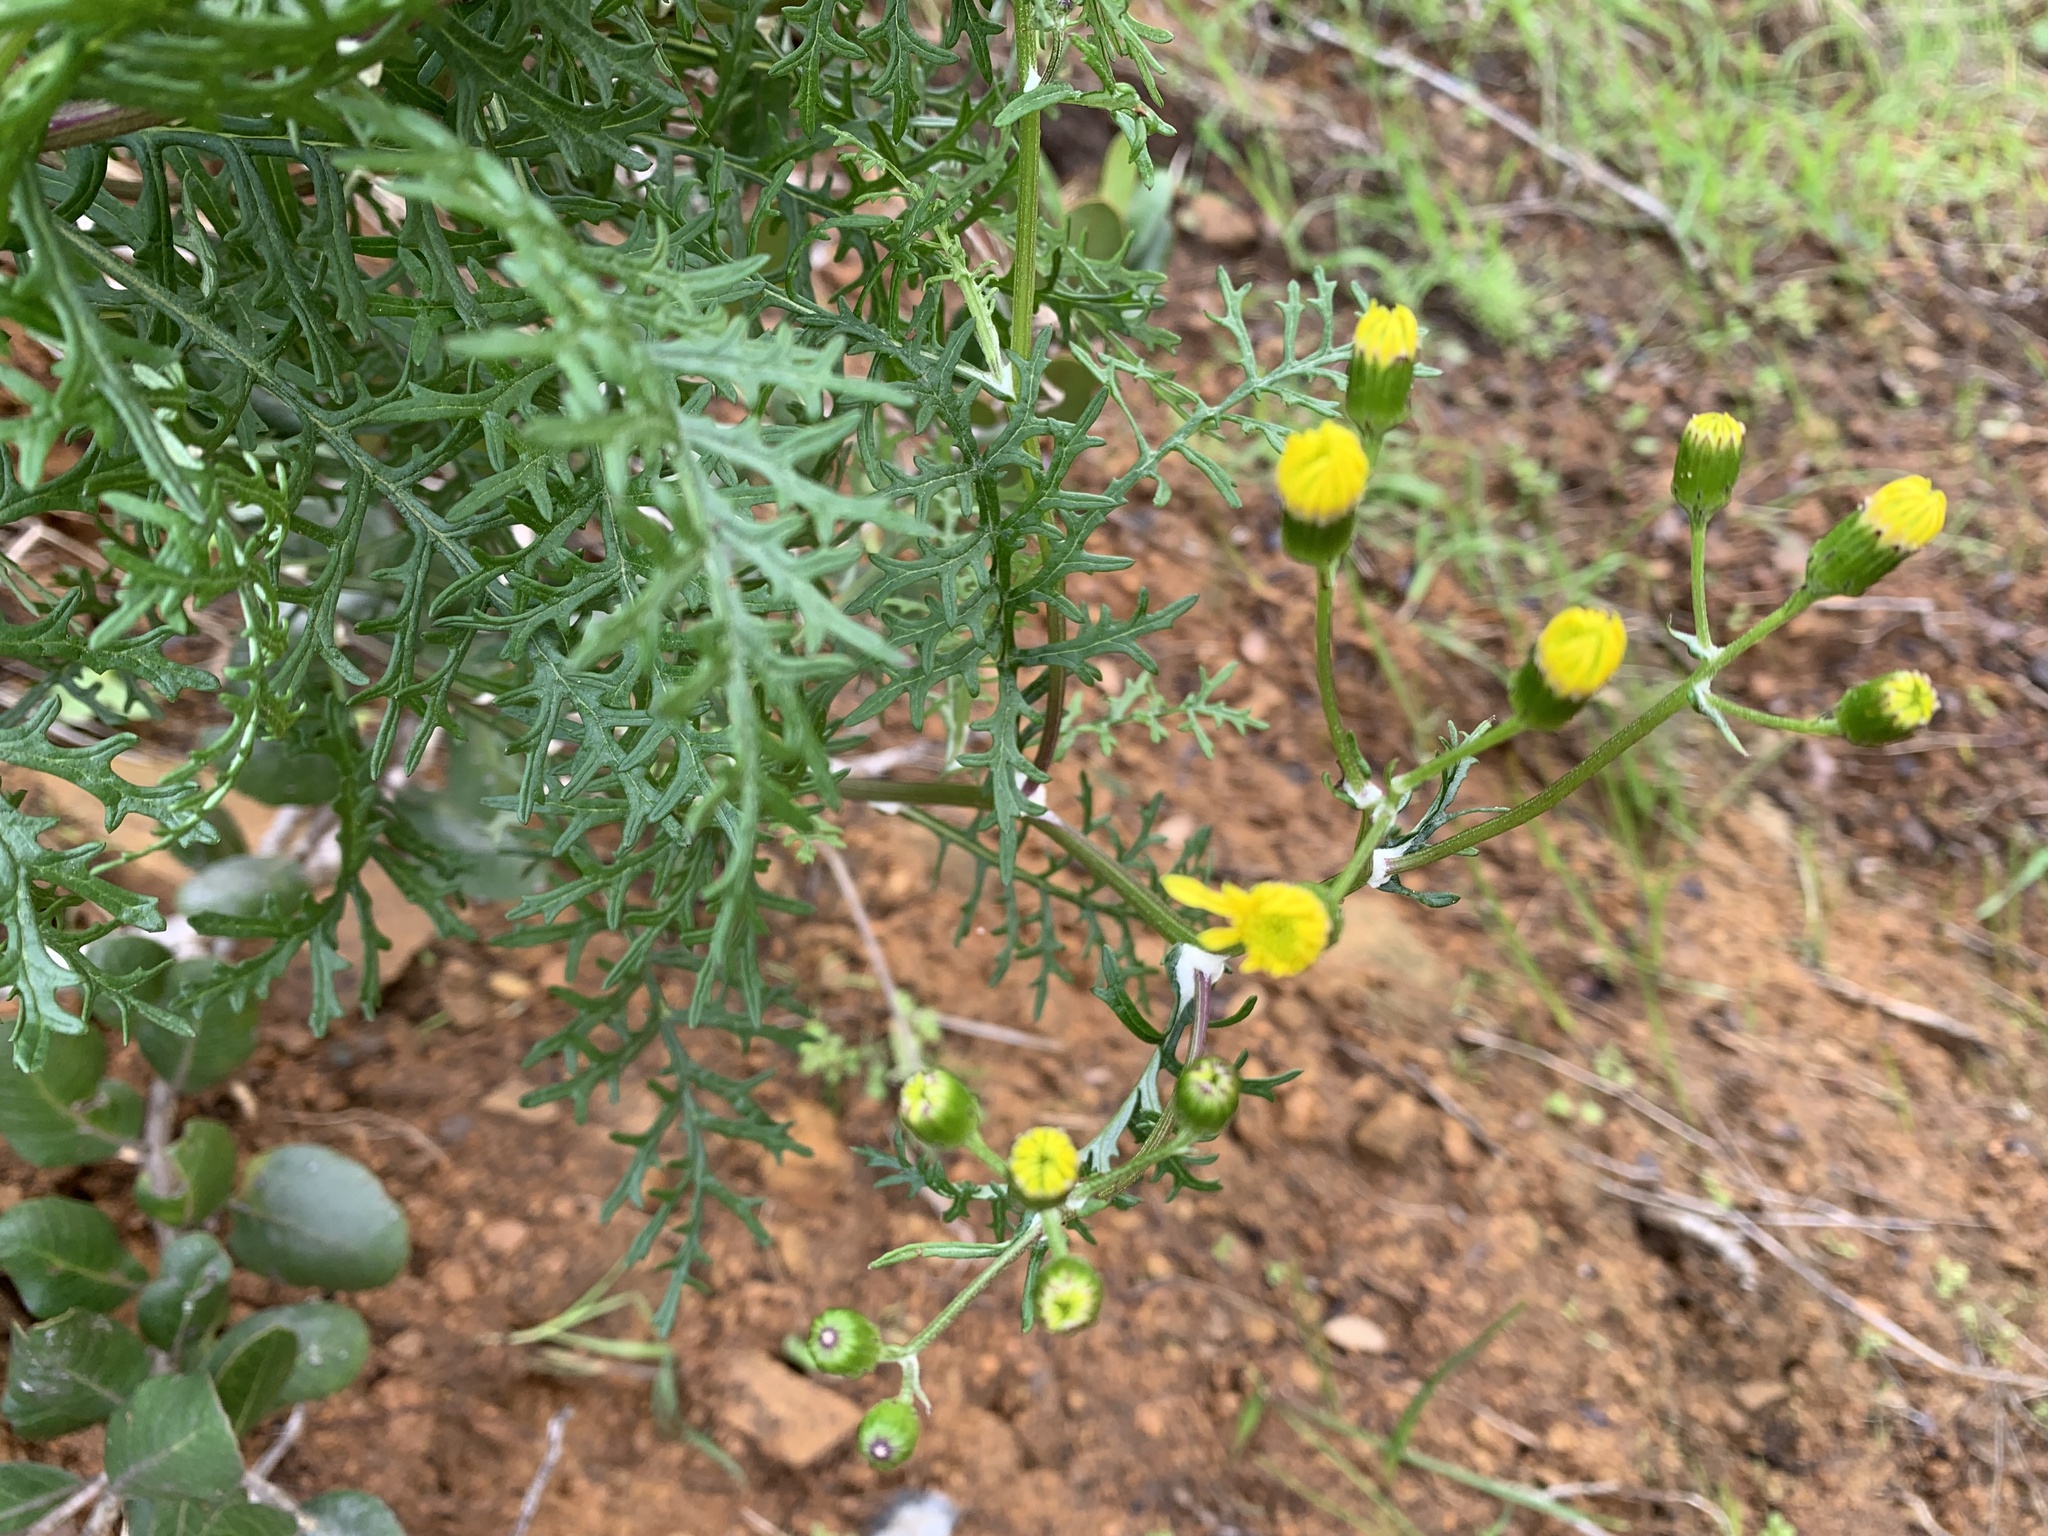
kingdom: Plantae
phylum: Tracheophyta
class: Magnoliopsida
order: Asterales
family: Asteraceae
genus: Senecio
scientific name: Senecio lyonii
